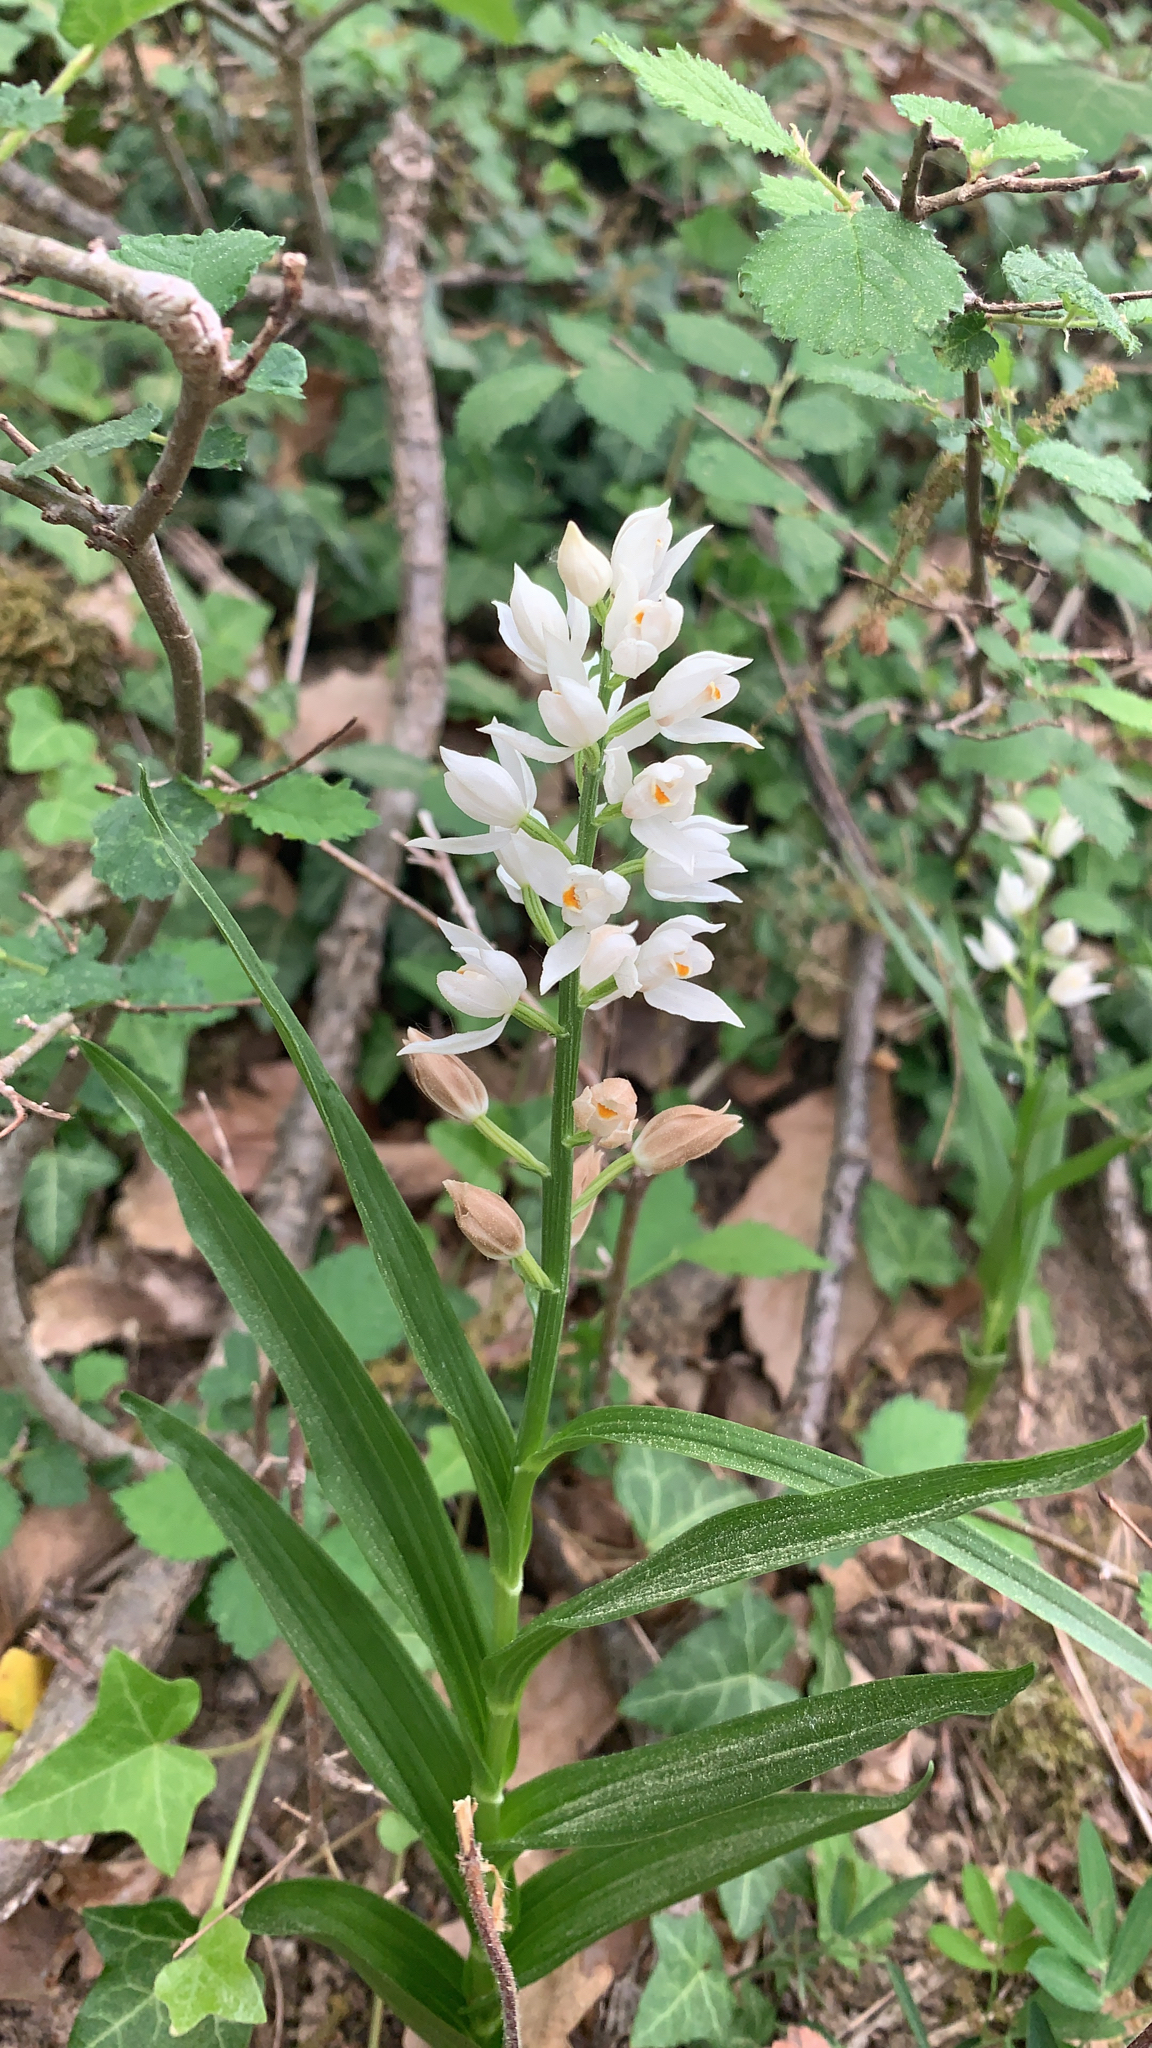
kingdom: Plantae
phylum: Tracheophyta
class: Liliopsida
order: Asparagales
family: Orchidaceae
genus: Cephalanthera
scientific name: Cephalanthera longifolia
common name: Narrow-leaved helleborine
